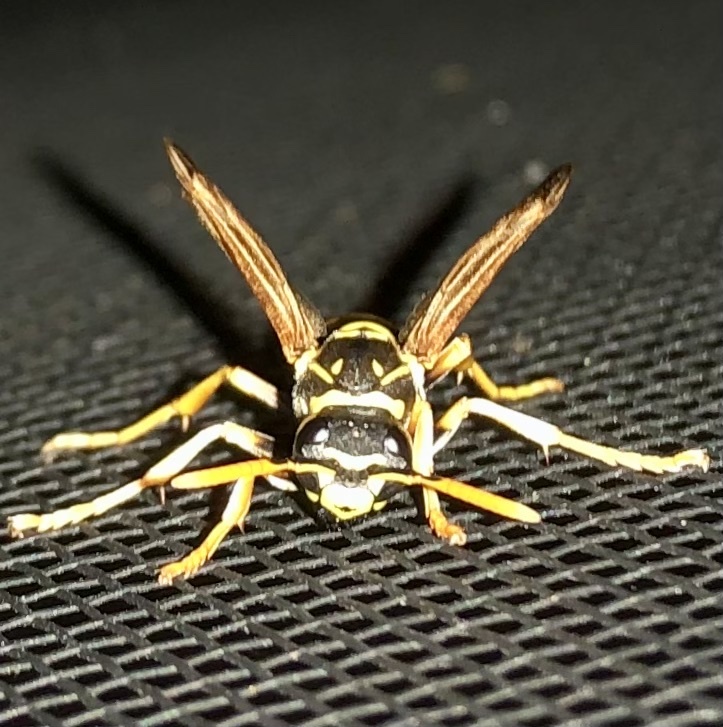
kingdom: Animalia
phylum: Arthropoda
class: Insecta
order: Hymenoptera
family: Eumenidae
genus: Polistes
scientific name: Polistes dominula
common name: Paper wasp
